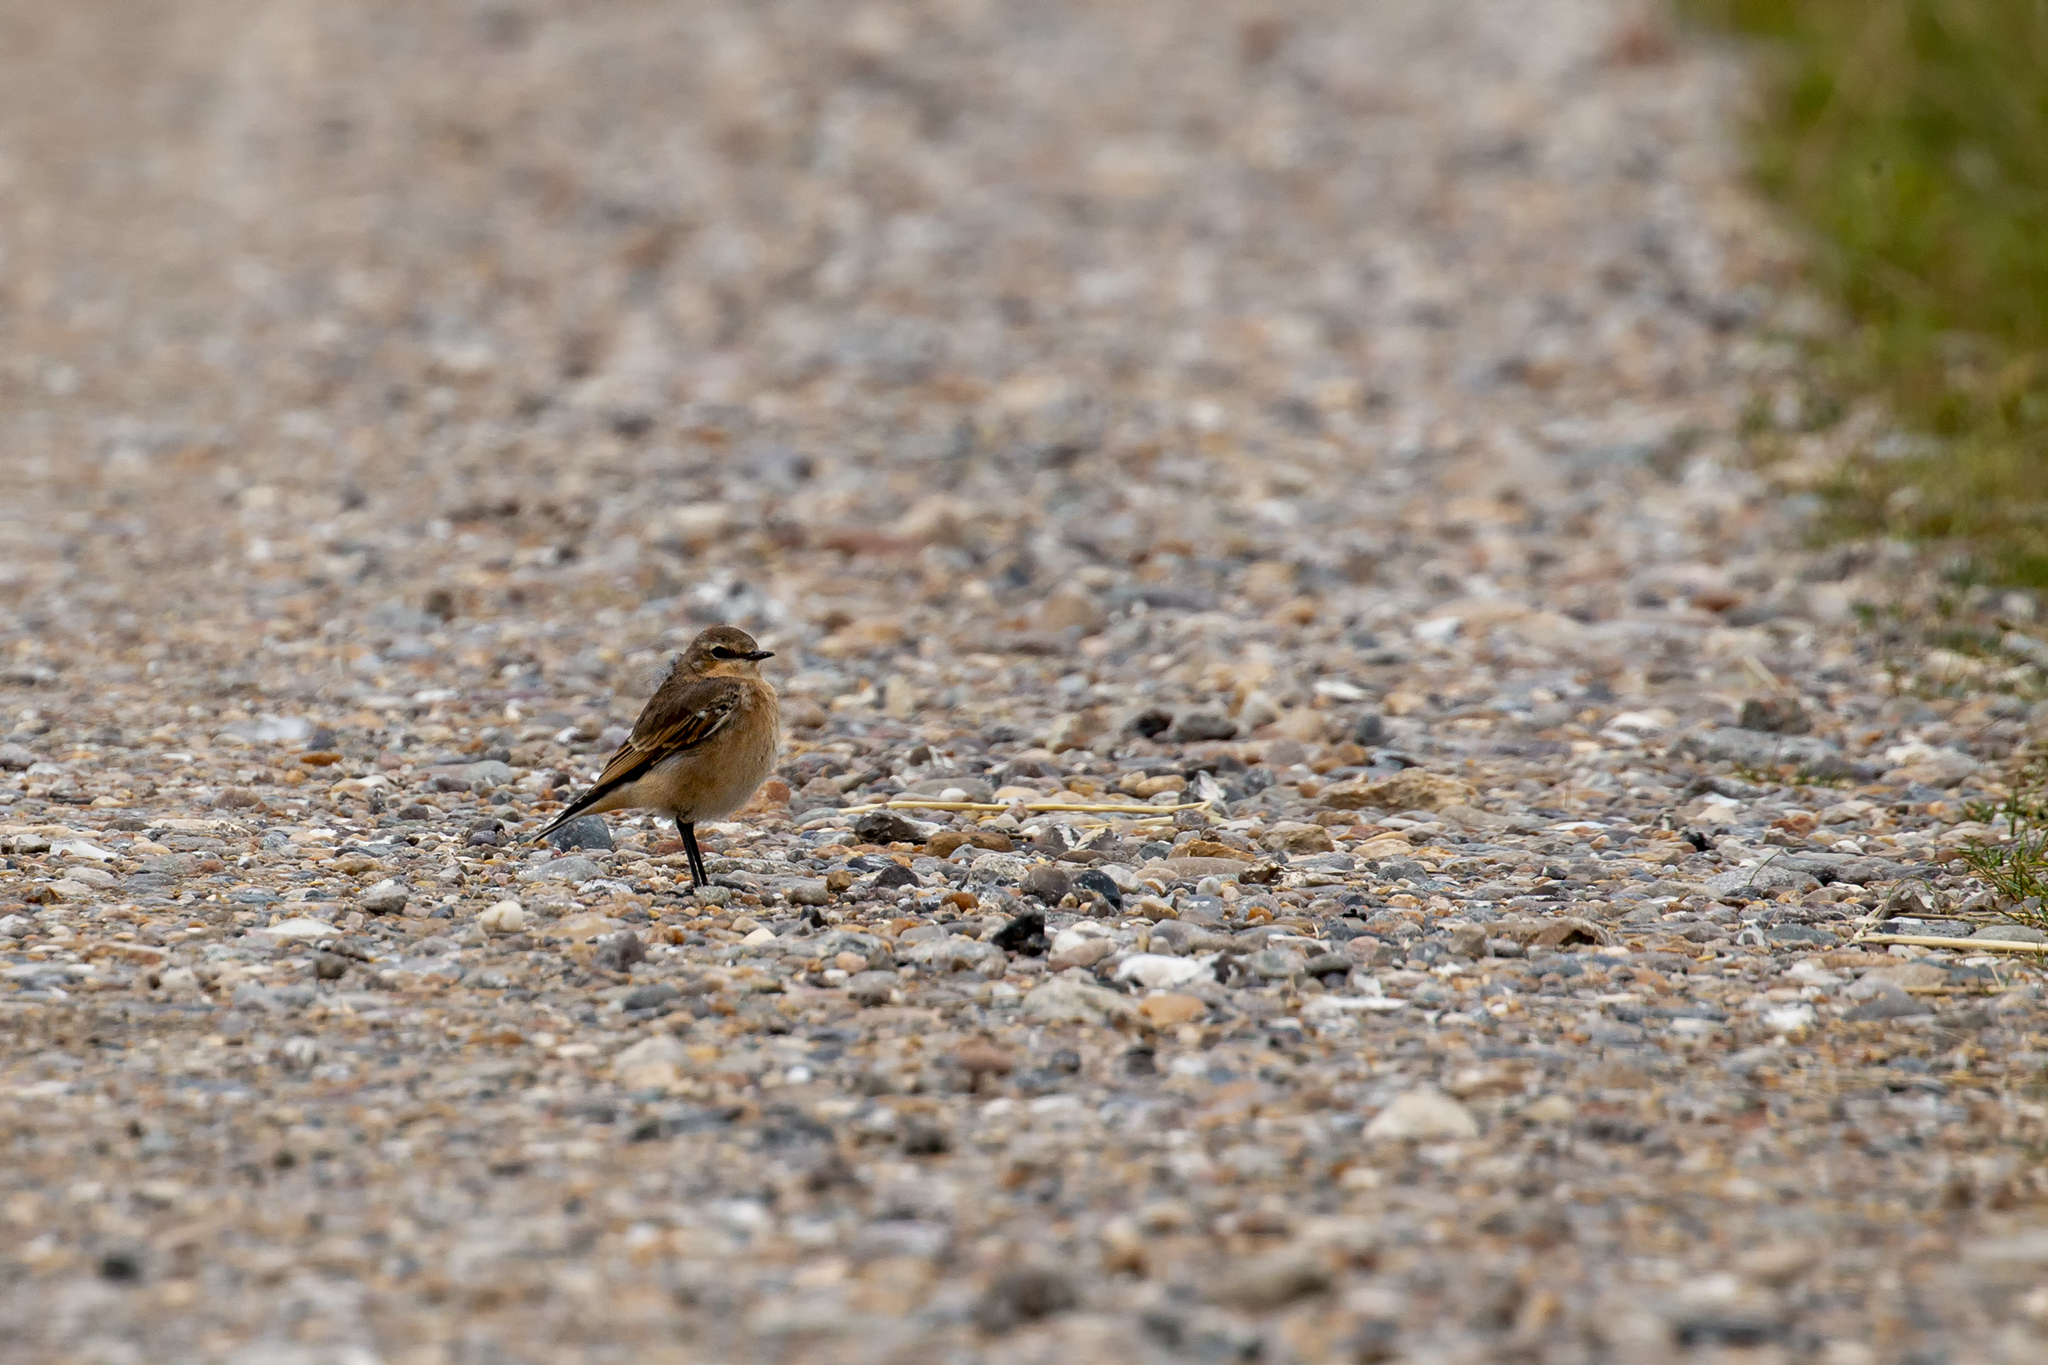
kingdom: Animalia
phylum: Chordata
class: Aves
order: Passeriformes
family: Muscicapidae
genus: Oenanthe
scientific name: Oenanthe oenanthe
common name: Northern wheatear
